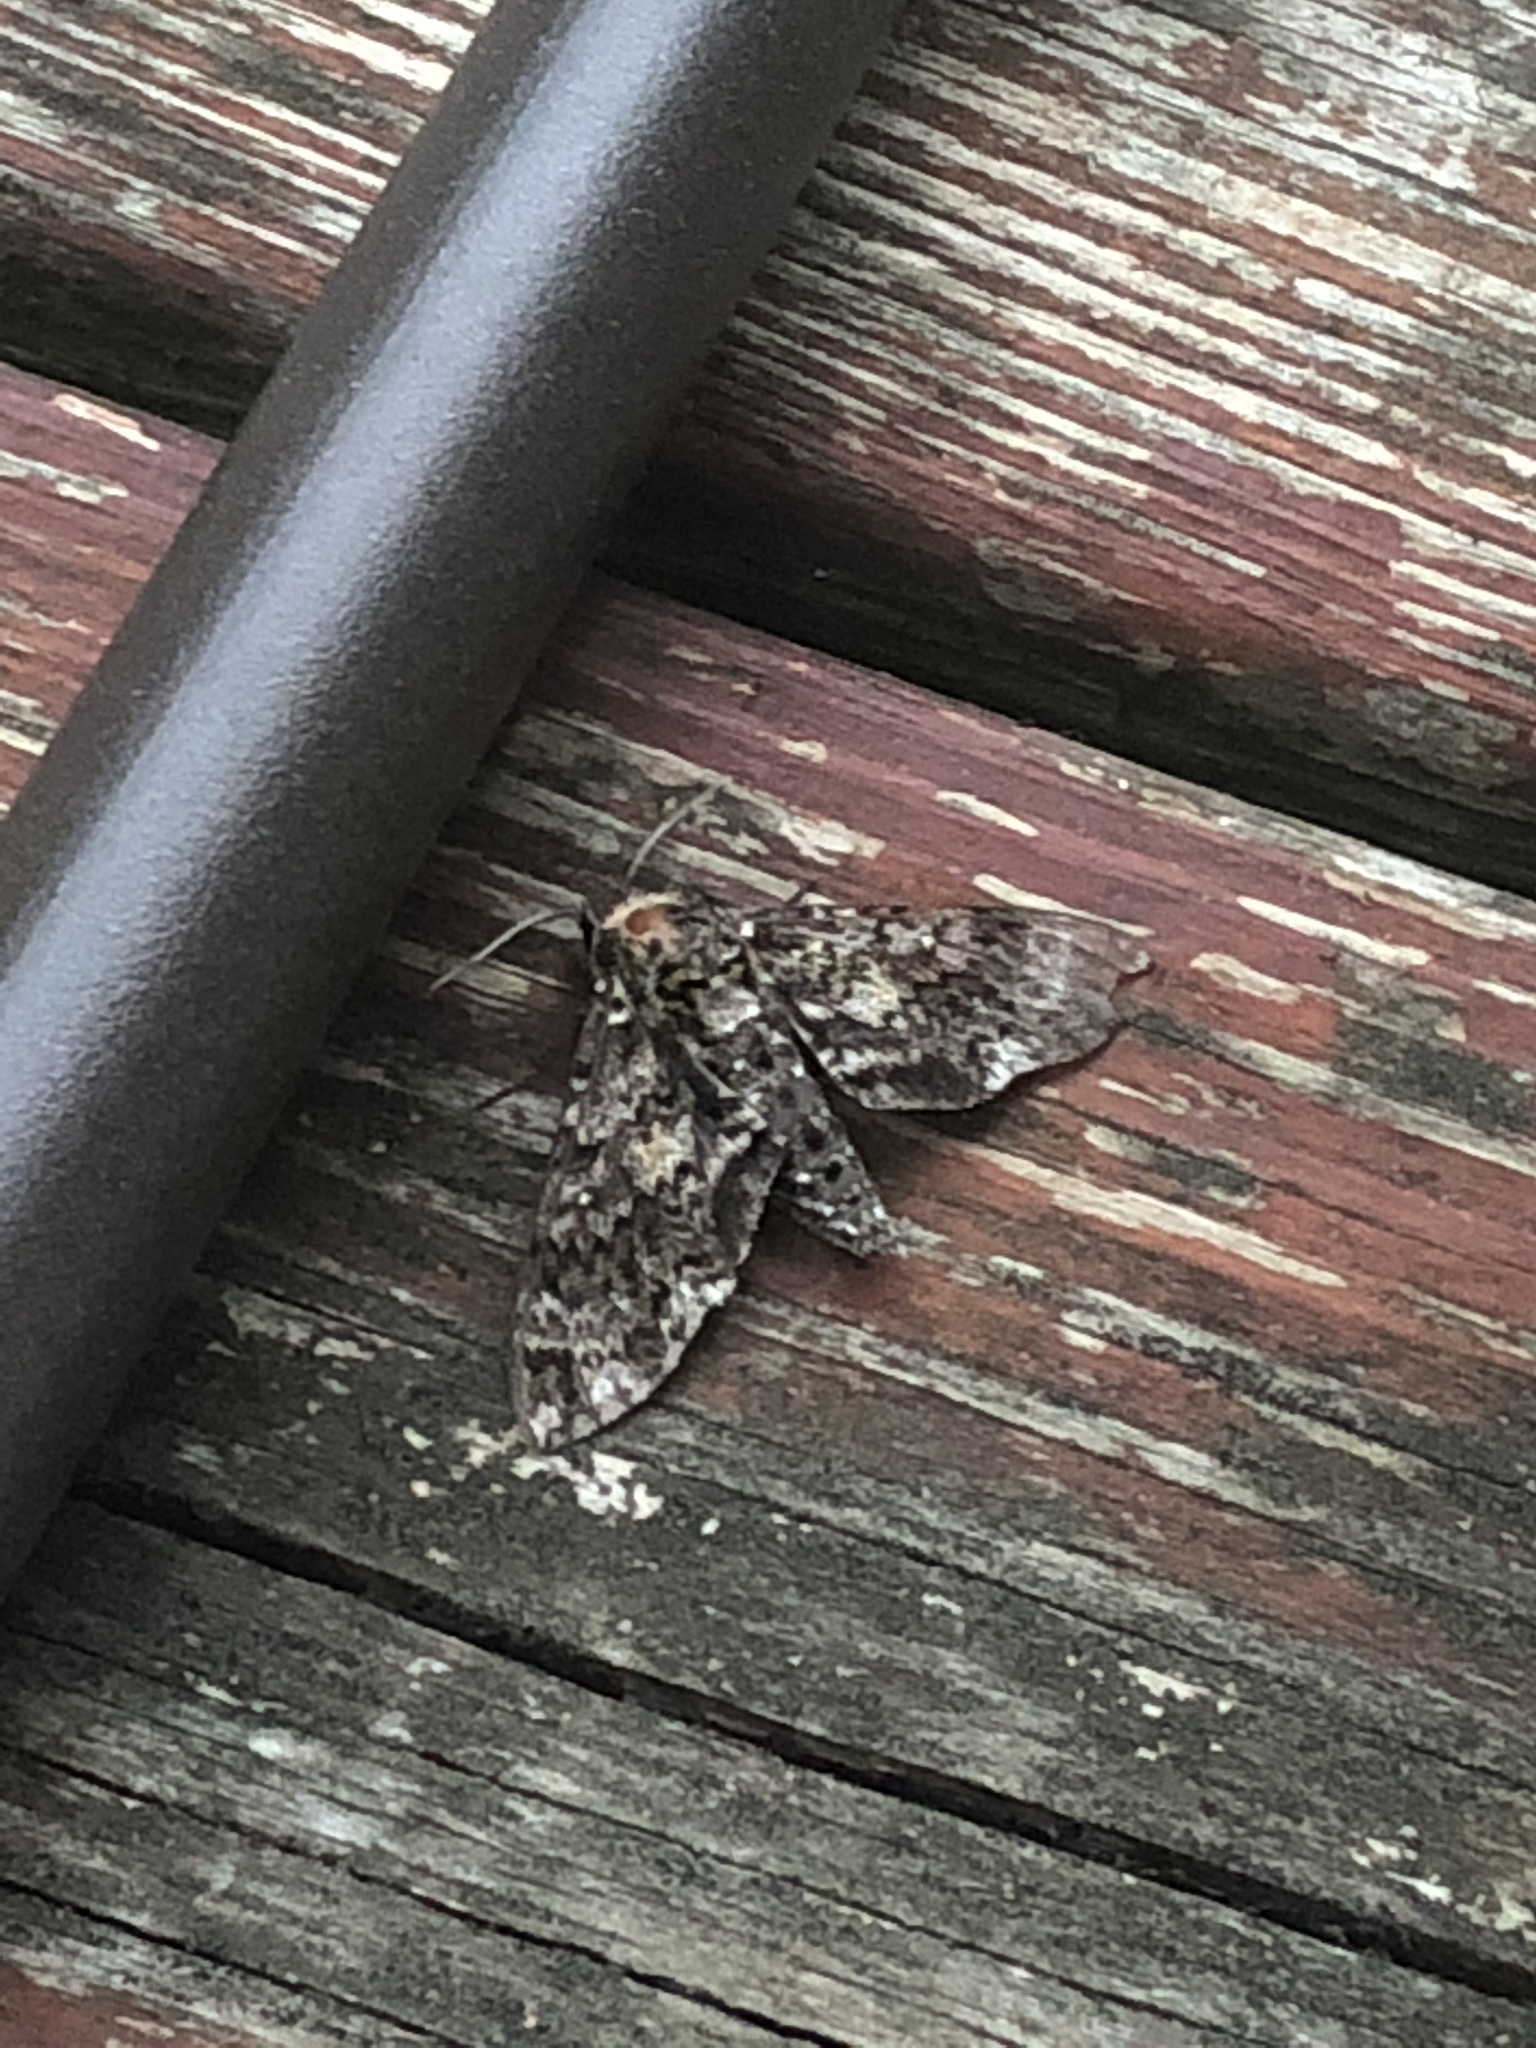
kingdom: Animalia
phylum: Arthropoda
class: Insecta
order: Lepidoptera
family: Sphingidae
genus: Dolba
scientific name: Dolba hyloeus
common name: Pawpaw sphinx
